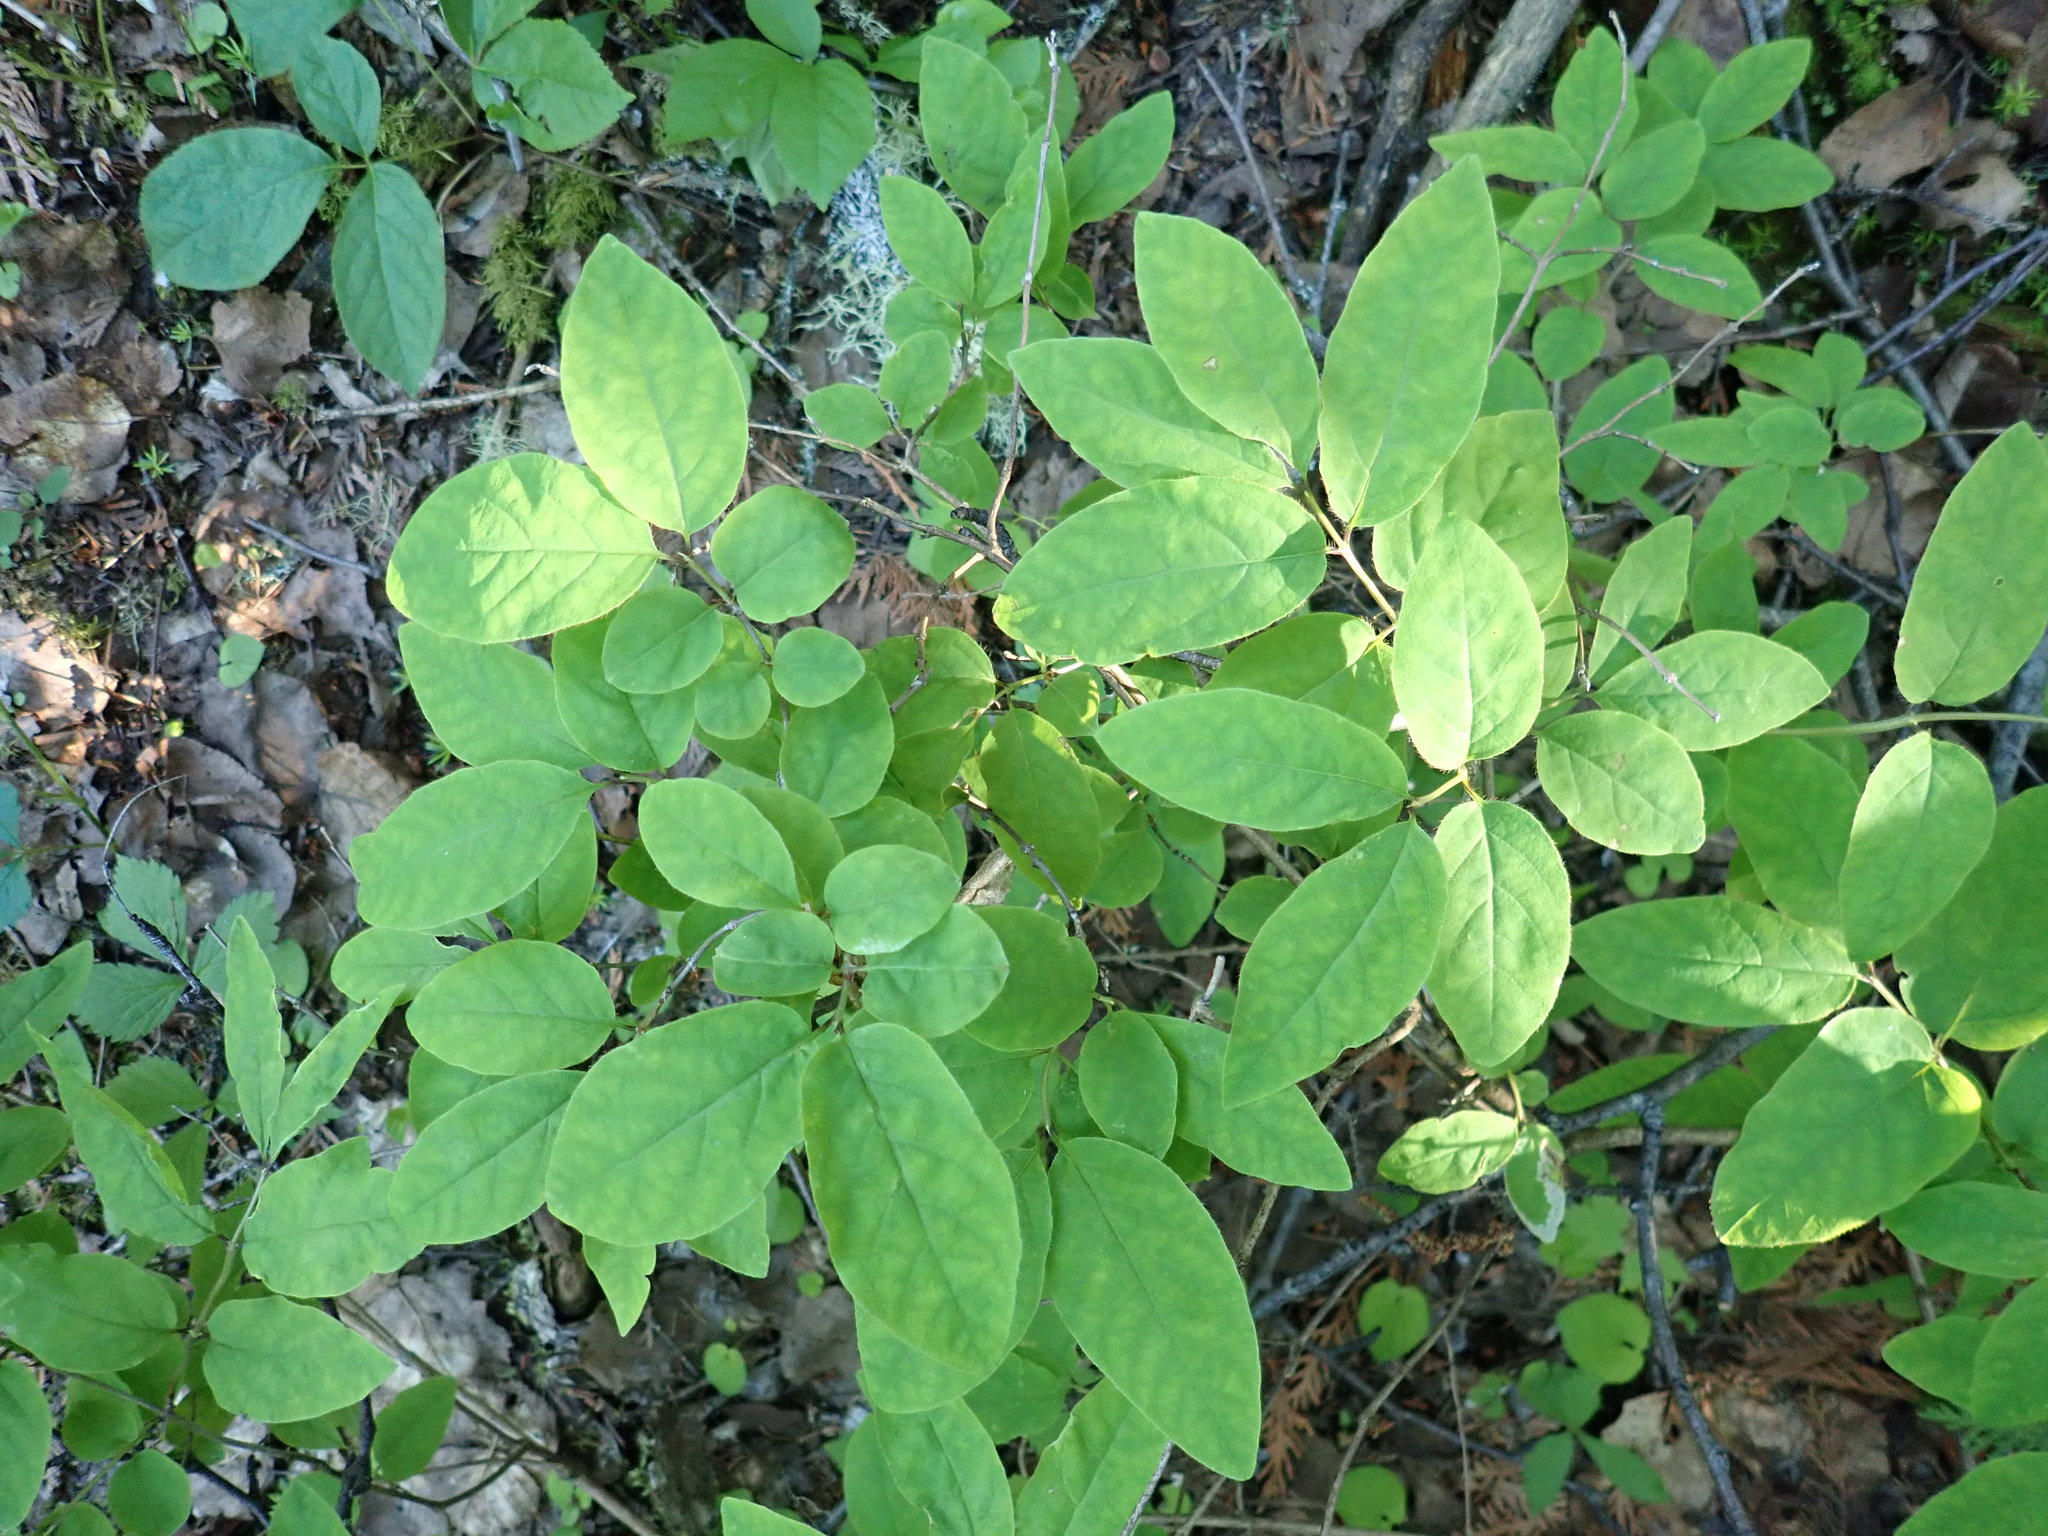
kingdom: Plantae
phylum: Tracheophyta
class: Magnoliopsida
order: Dipsacales
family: Caprifoliaceae
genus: Lonicera
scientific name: Lonicera canadensis
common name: American fly-honeysuckle
